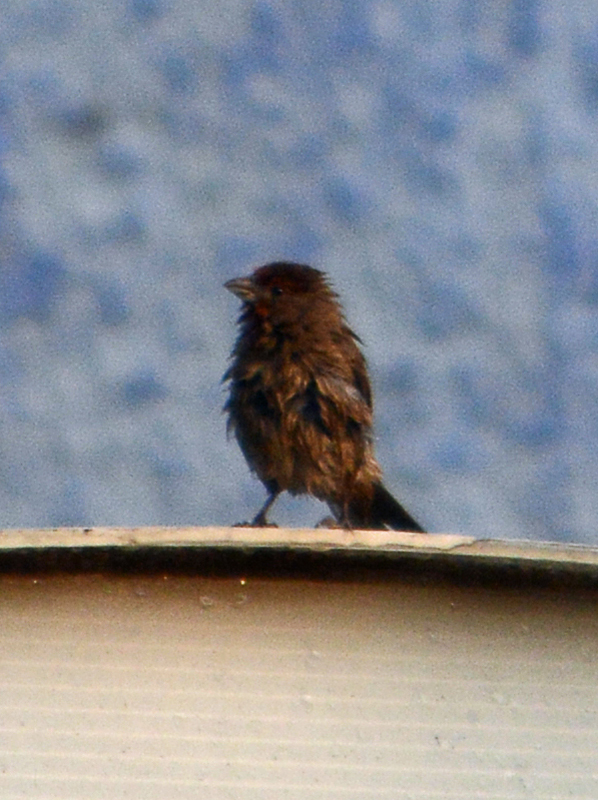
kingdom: Animalia
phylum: Chordata
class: Aves
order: Passeriformes
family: Fringillidae
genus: Haemorhous
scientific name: Haemorhous mexicanus
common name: House finch
